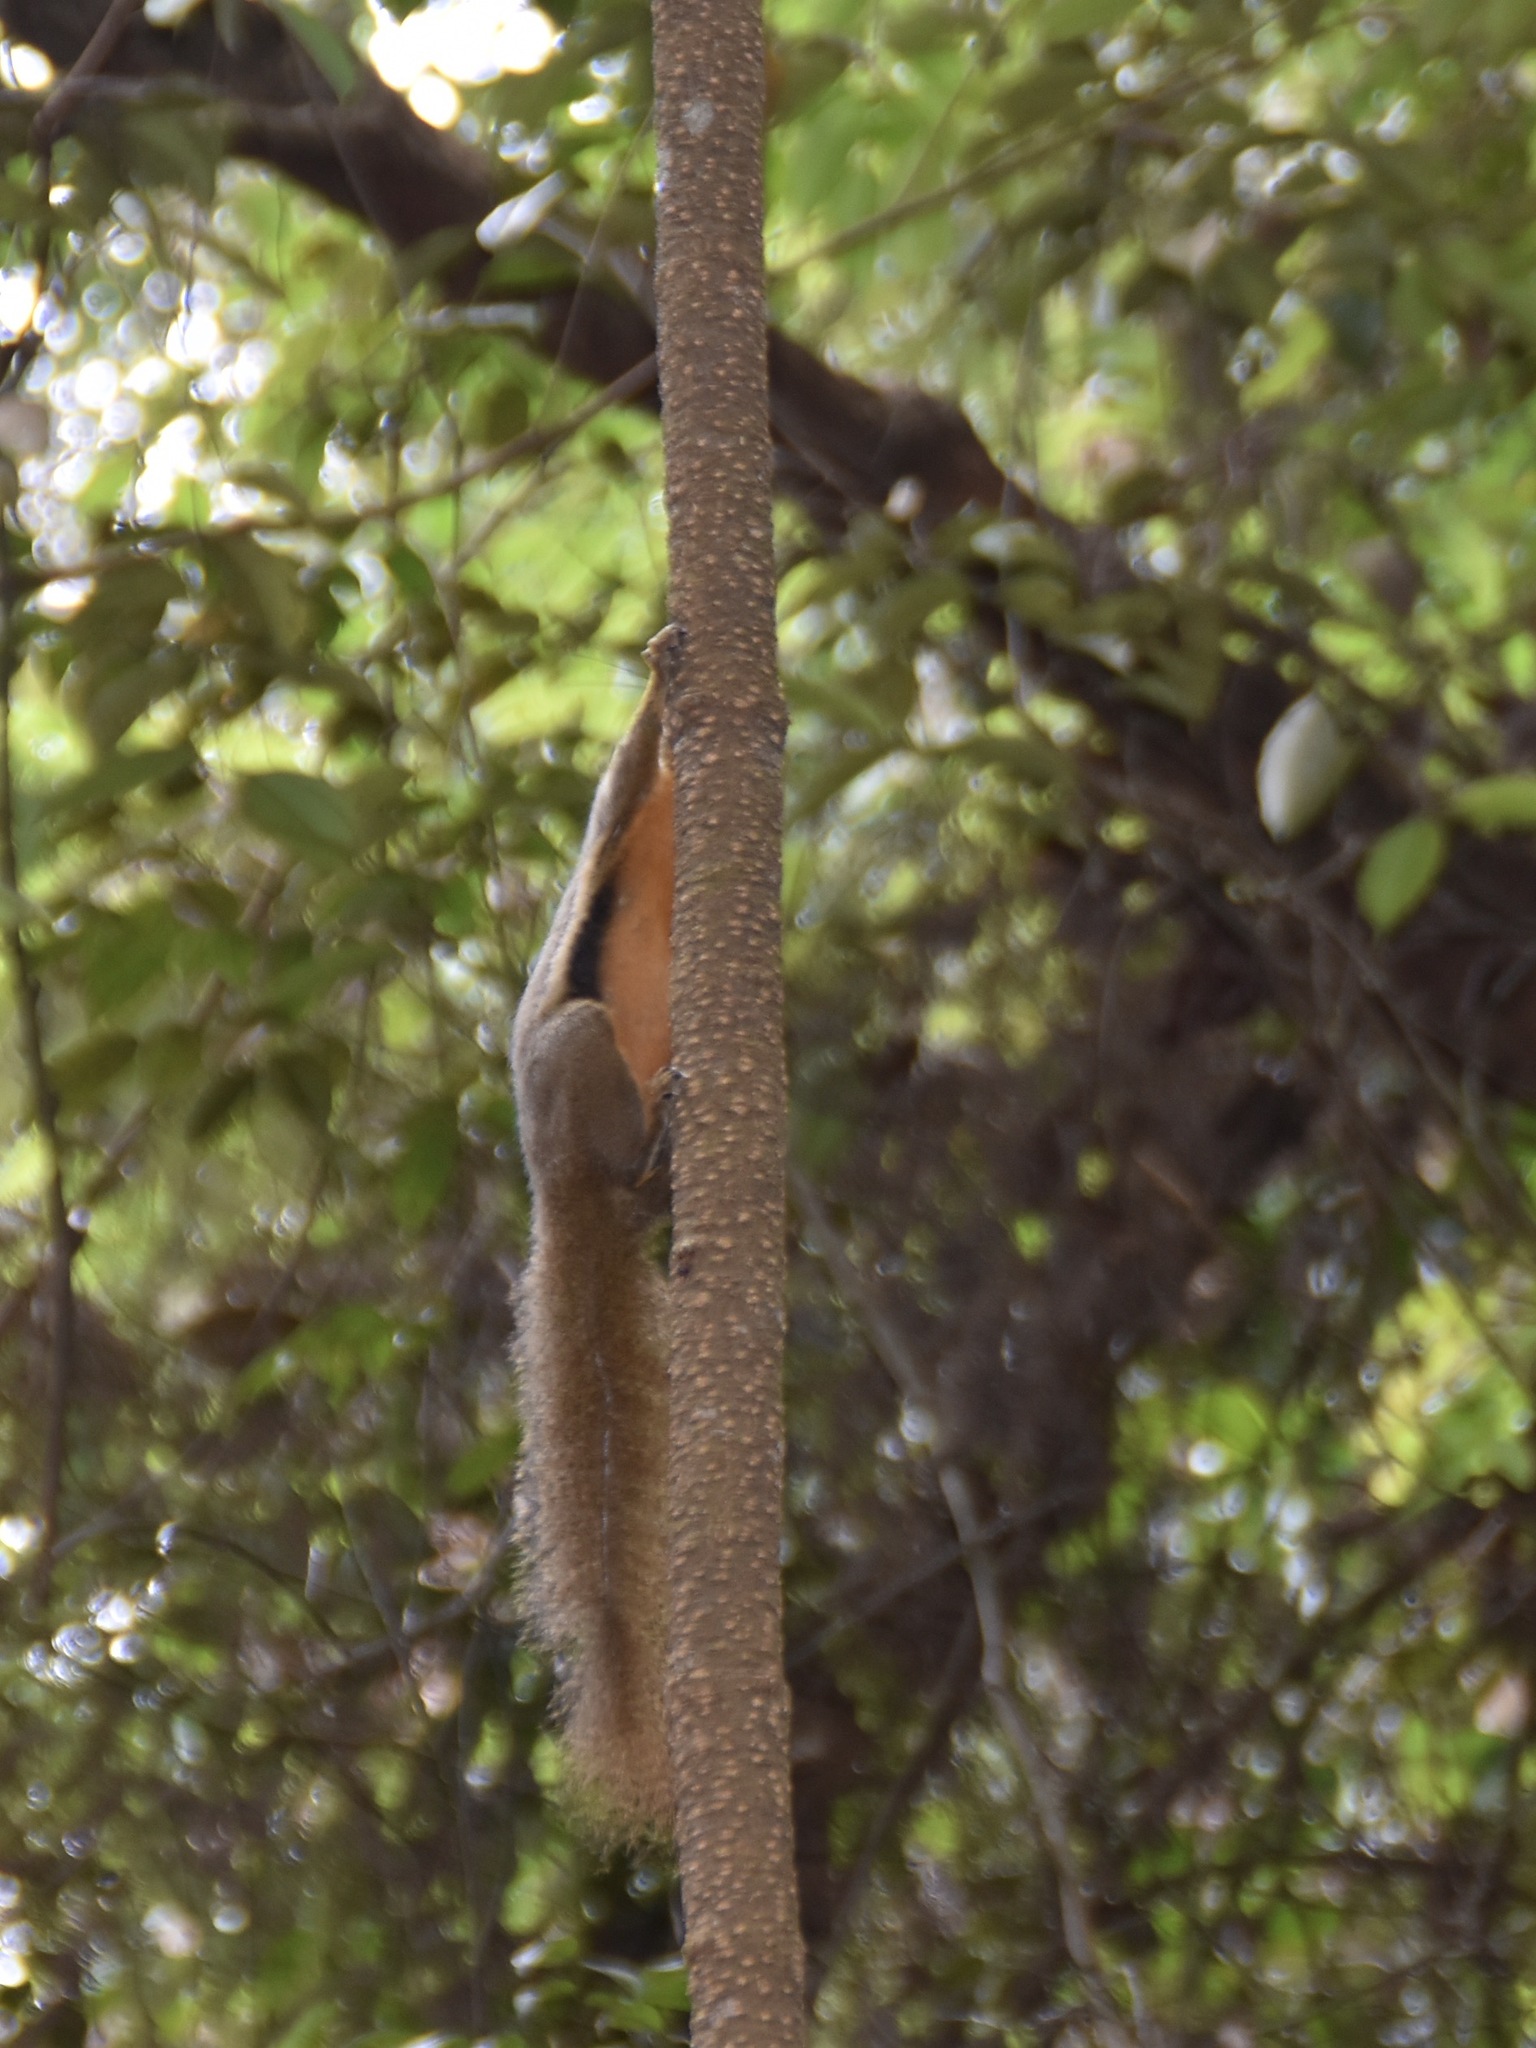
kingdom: Animalia
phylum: Chordata
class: Mammalia
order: Rodentia
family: Sciuridae
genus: Callosciurus
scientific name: Callosciurus notatus
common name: Plantain squirrel
